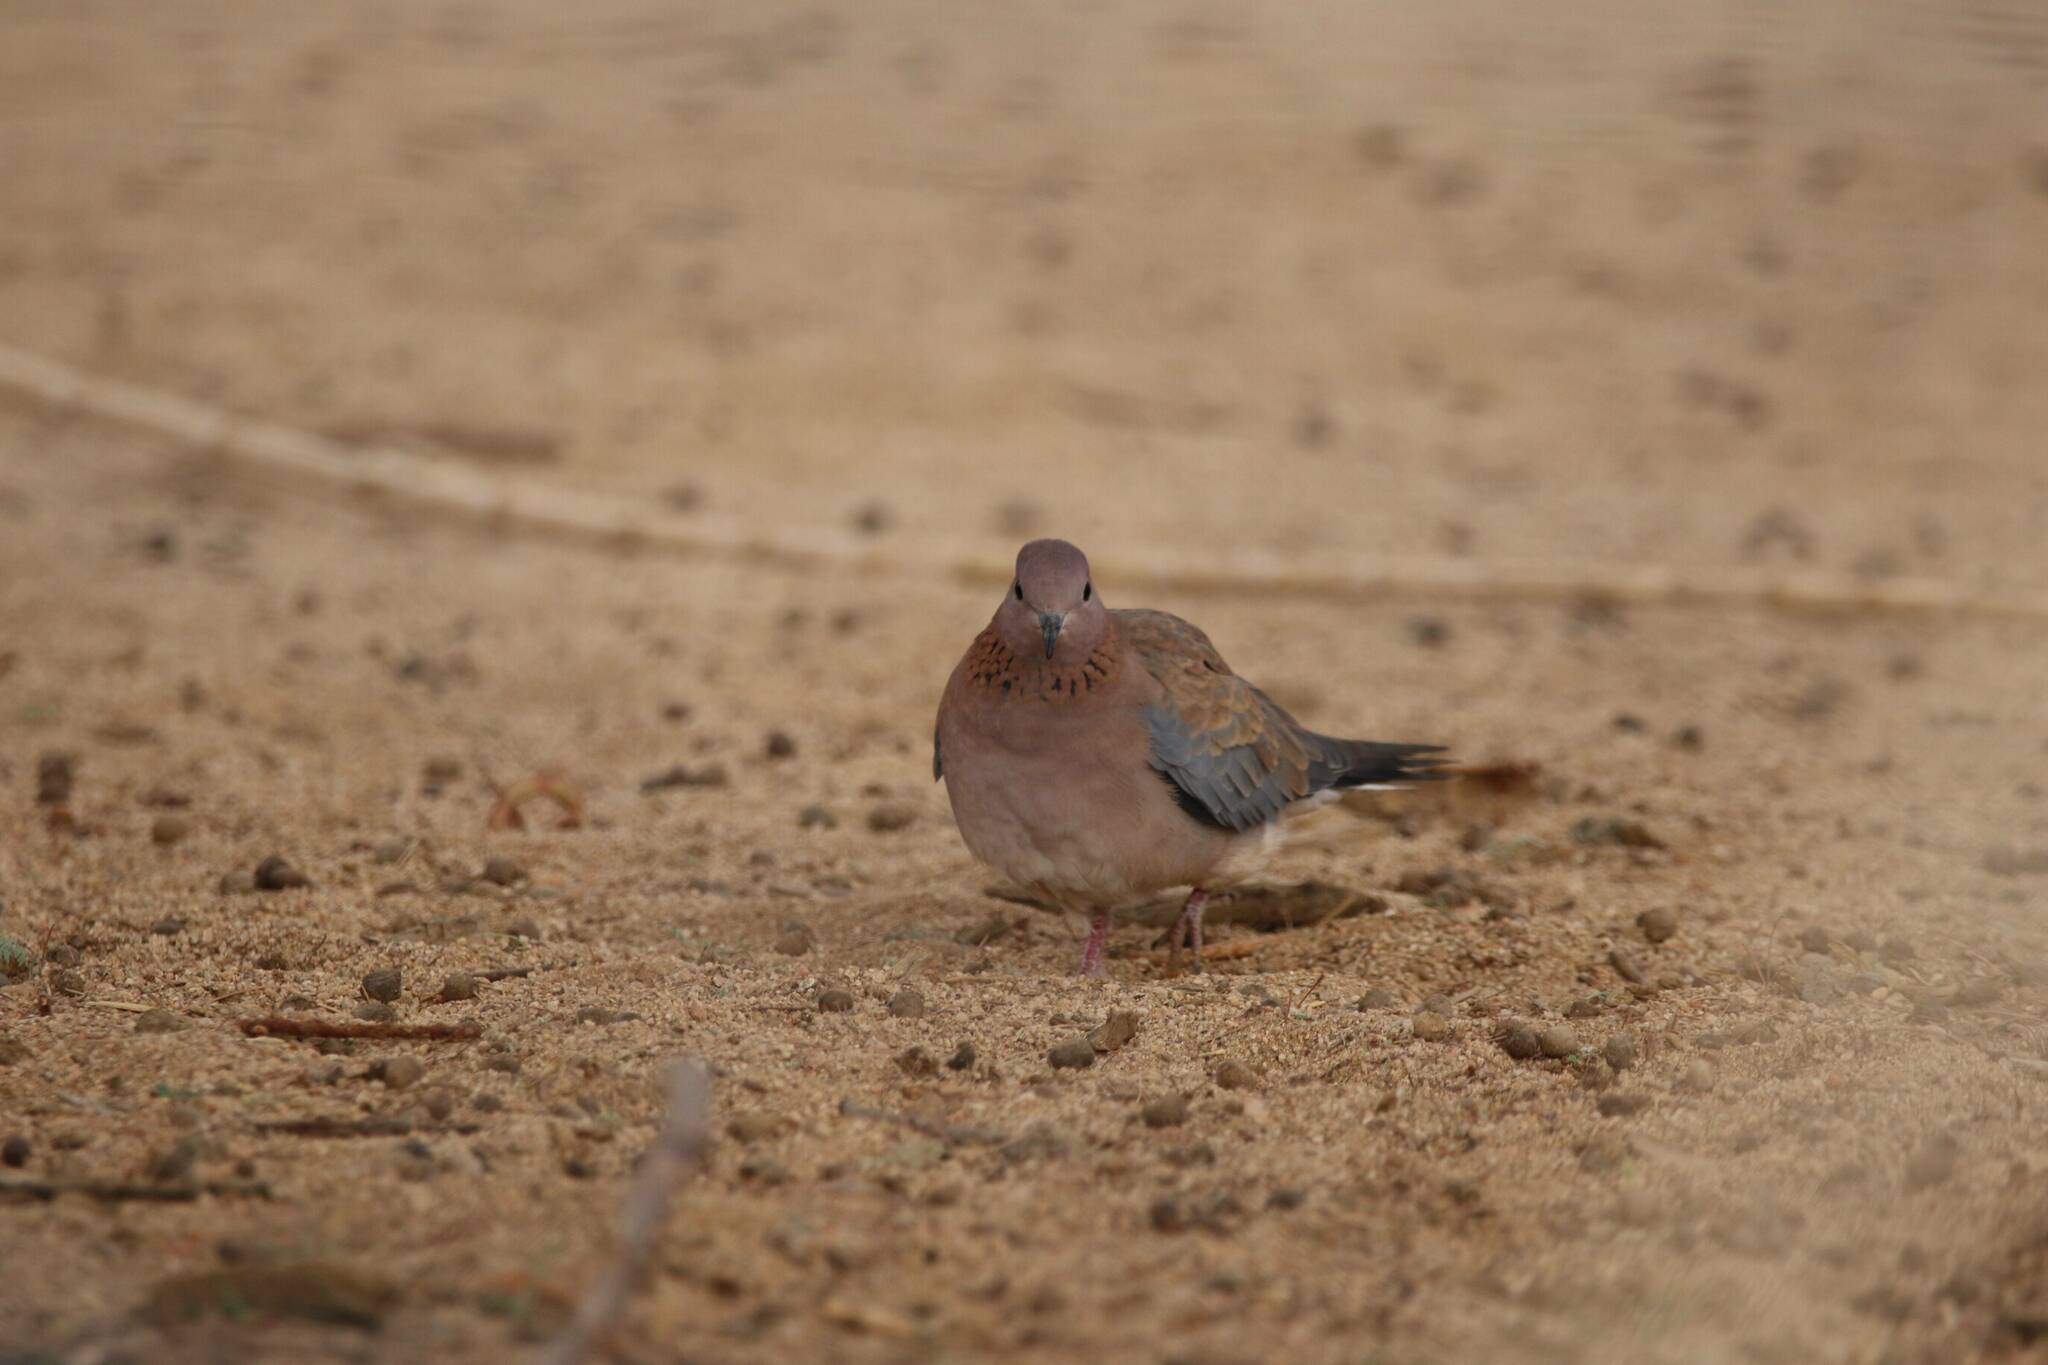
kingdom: Animalia
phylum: Chordata
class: Aves
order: Columbiformes
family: Columbidae
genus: Spilopelia
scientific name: Spilopelia senegalensis
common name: Laughing dove
